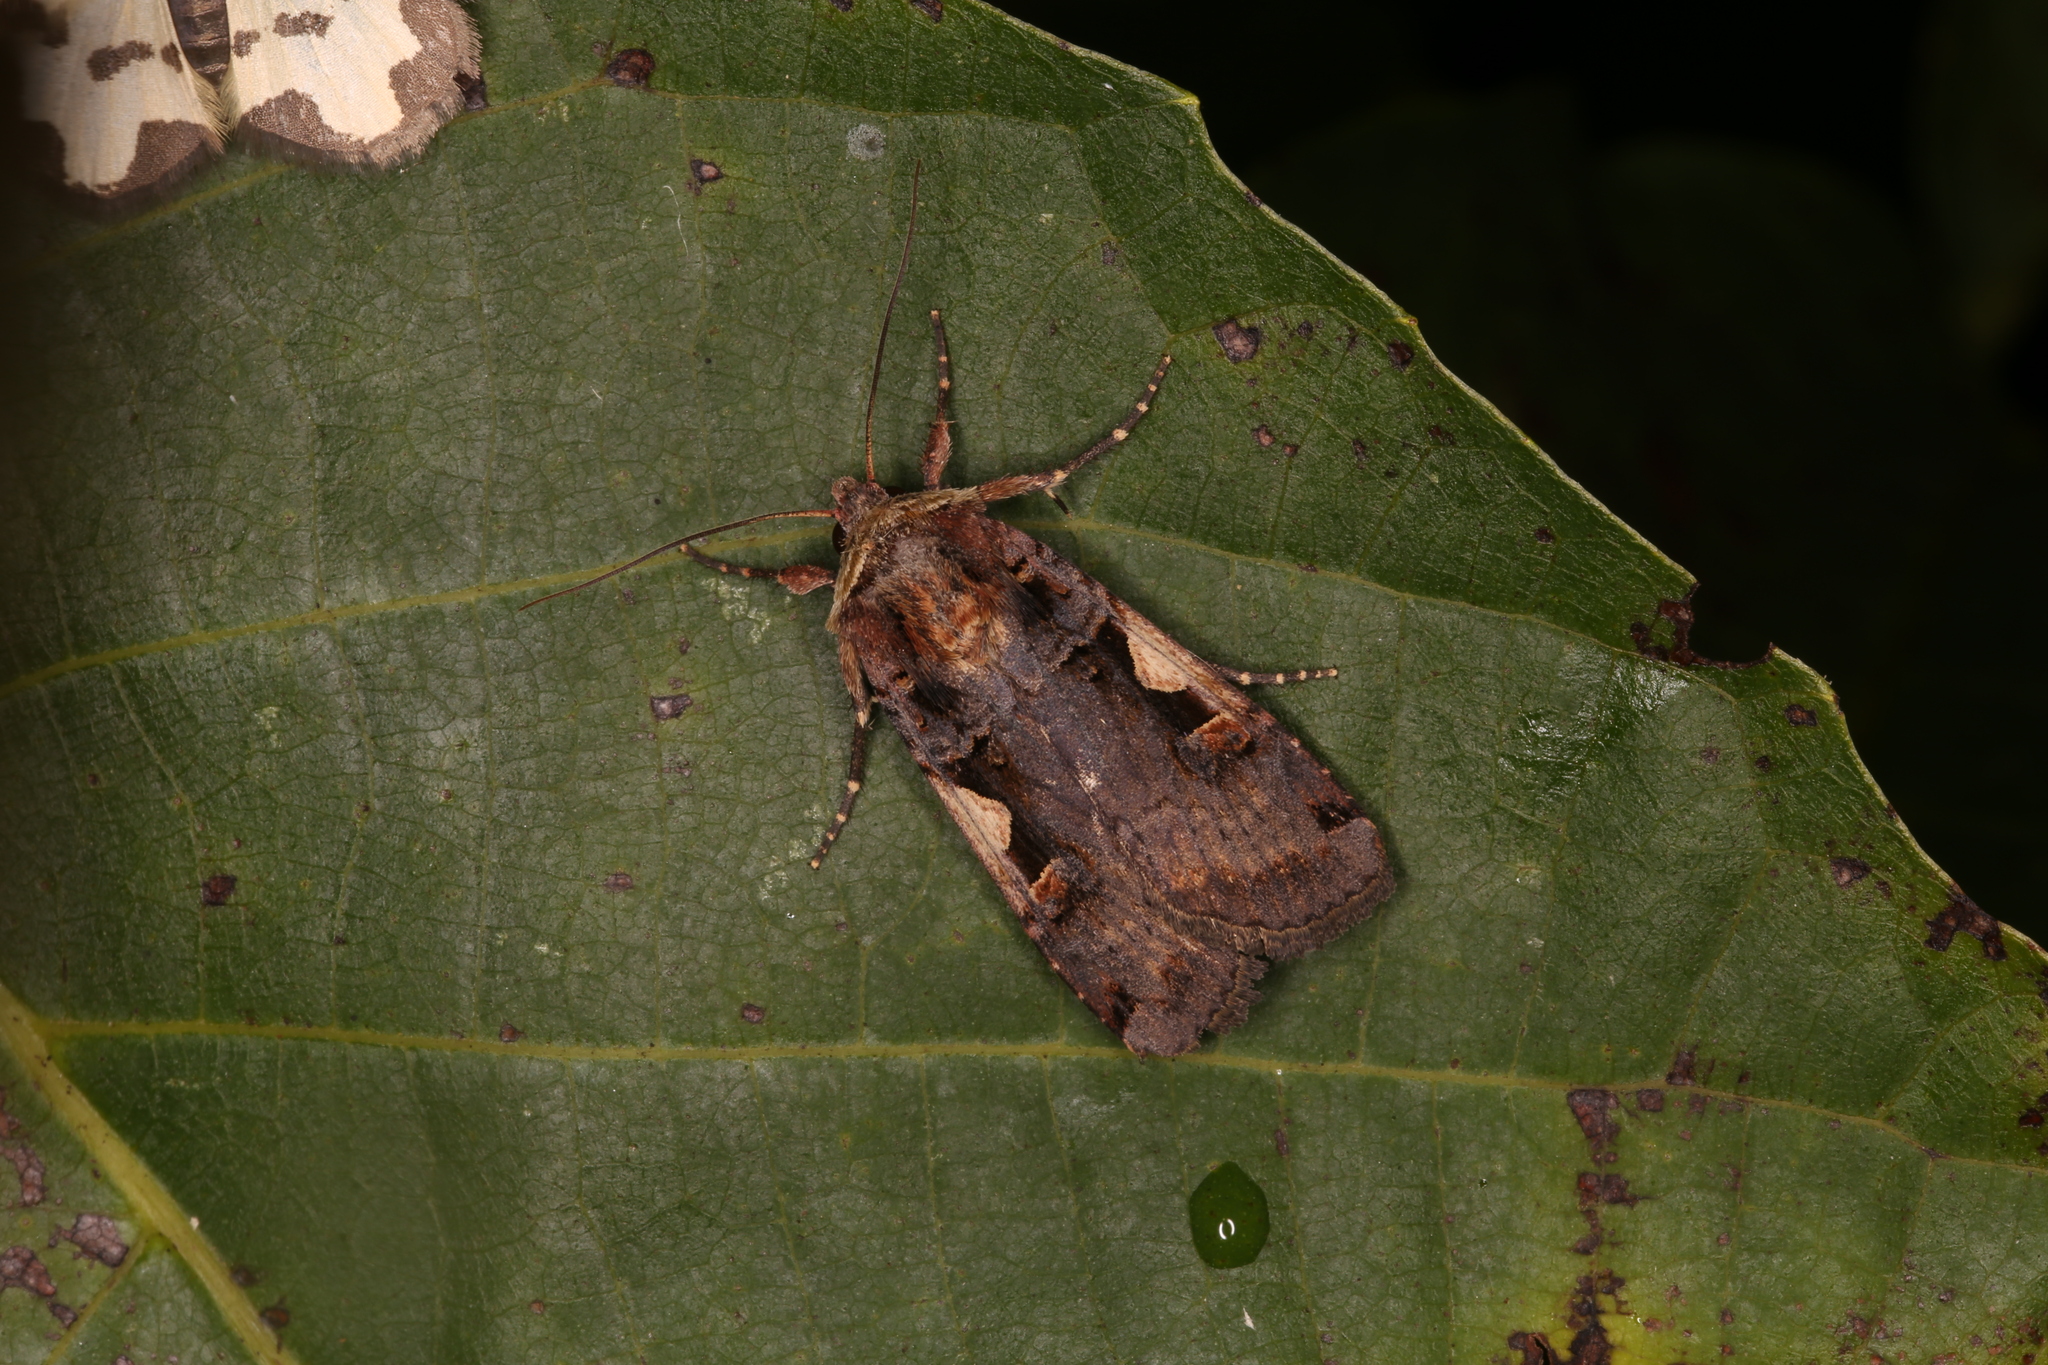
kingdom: Animalia
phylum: Arthropoda
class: Insecta
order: Lepidoptera
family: Noctuidae
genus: Xestia
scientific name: Xestia c-nigrum
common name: Setaceous hebrew character
